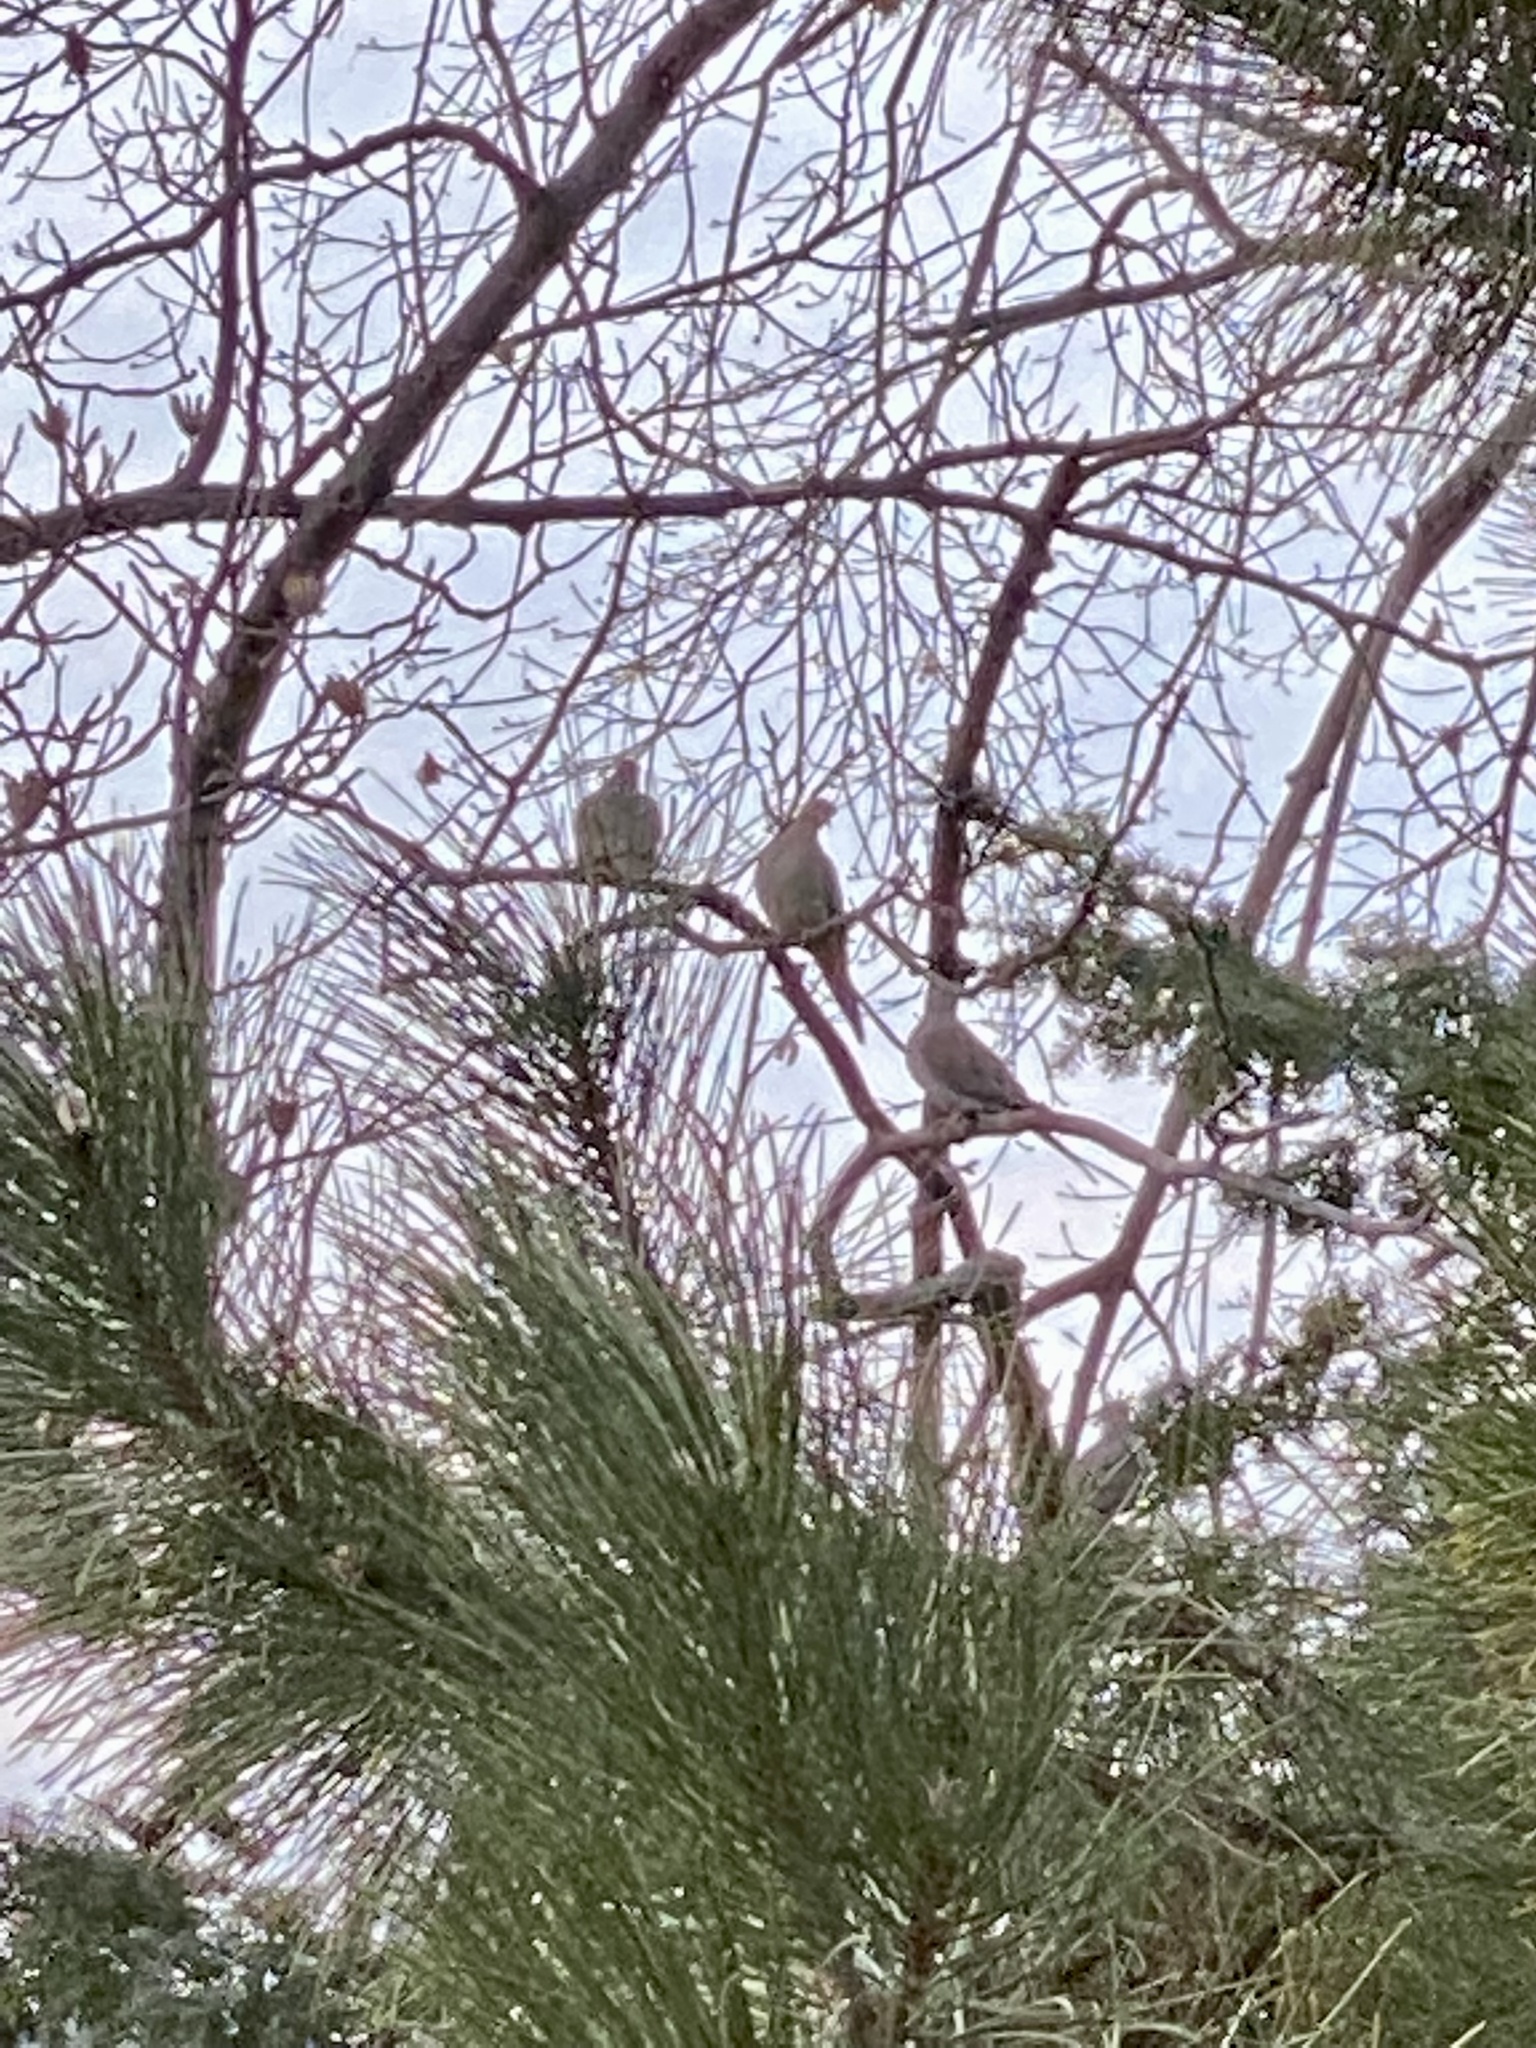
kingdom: Animalia
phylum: Chordata
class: Aves
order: Columbiformes
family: Columbidae
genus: Zenaida
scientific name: Zenaida macroura
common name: Mourning dove
